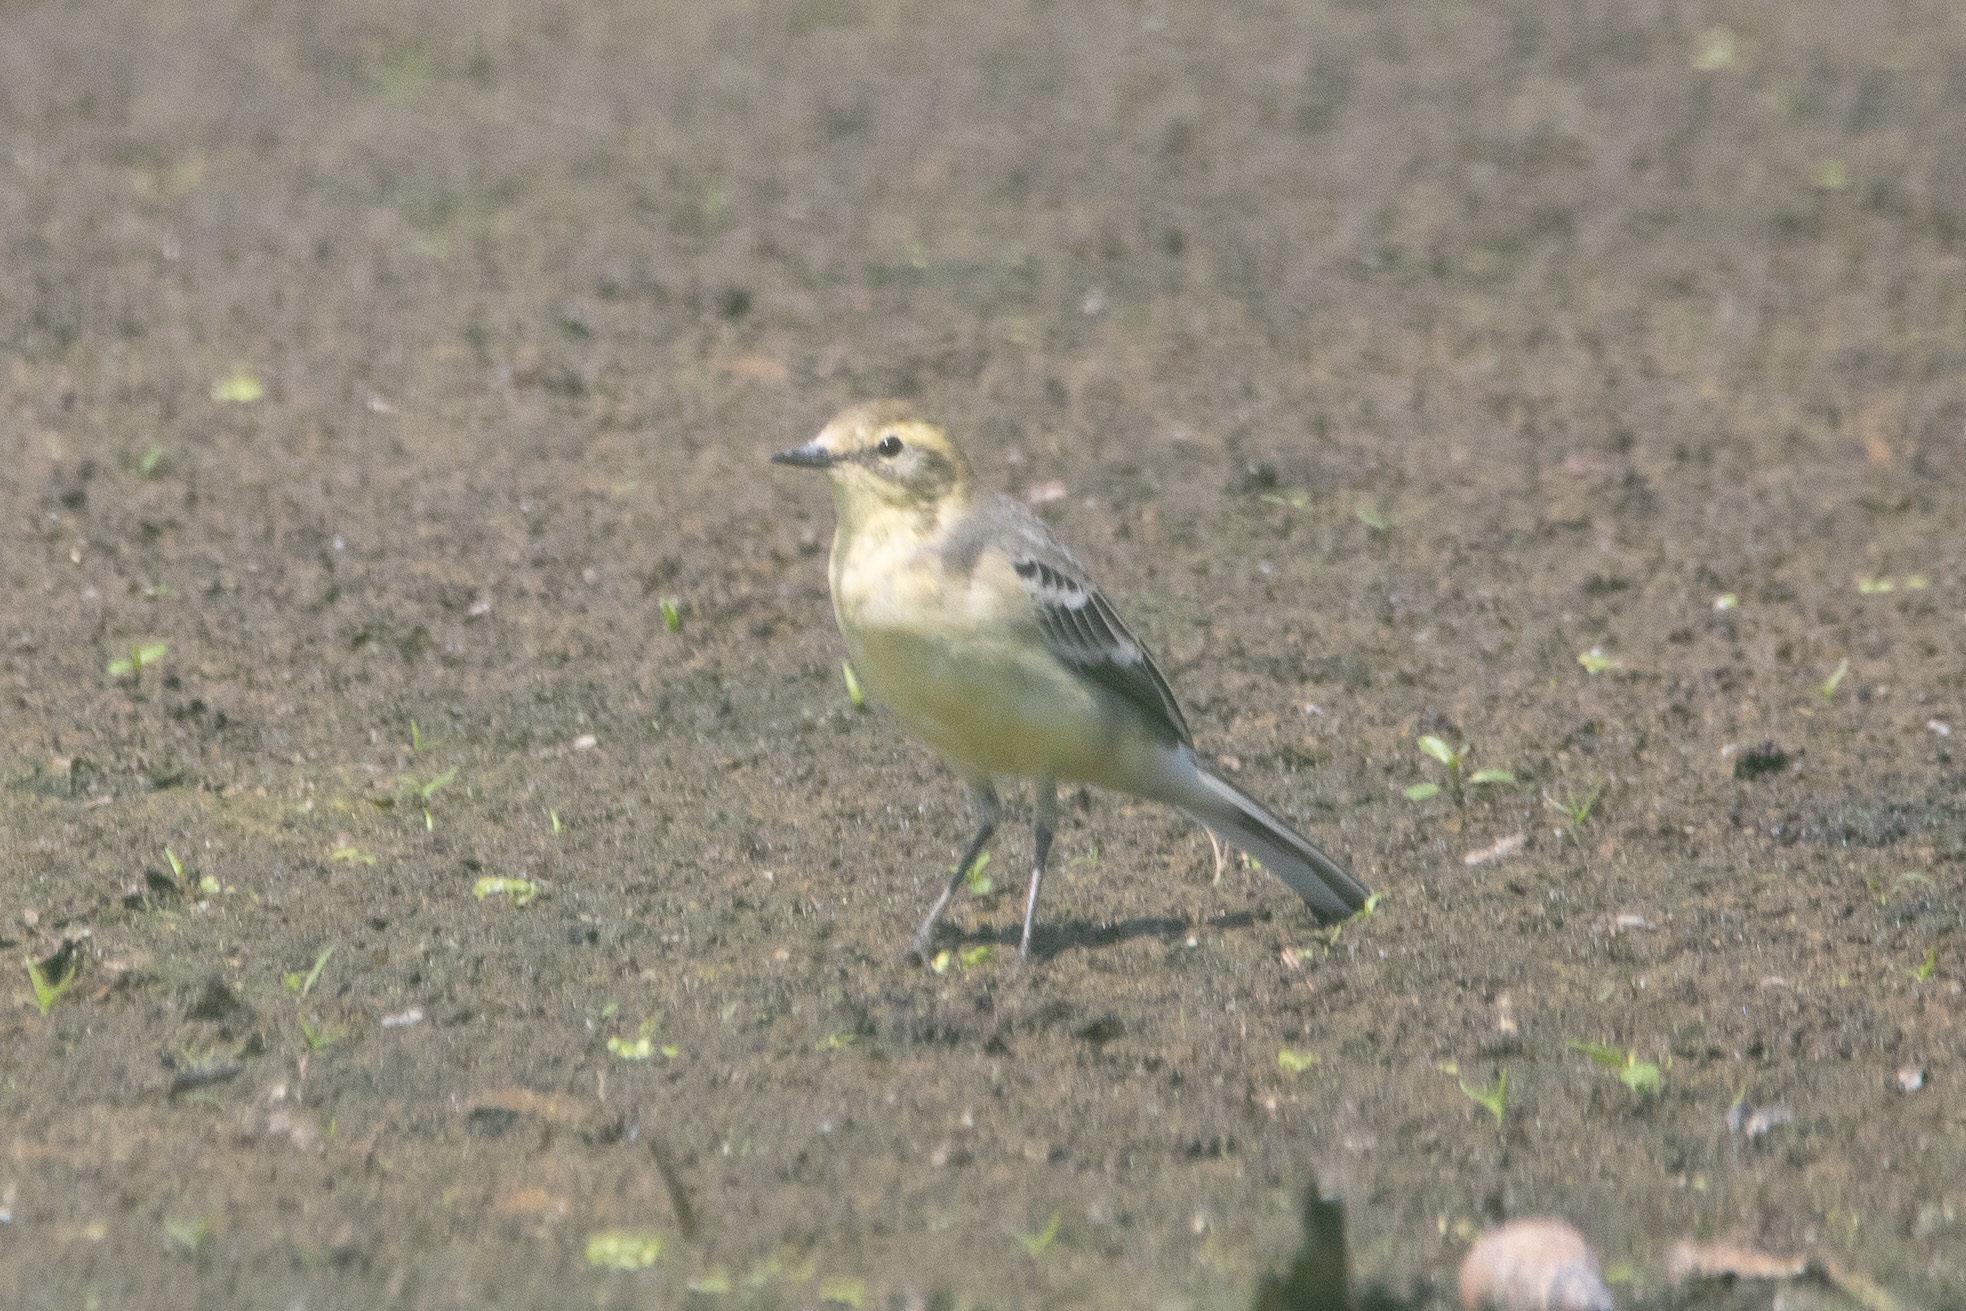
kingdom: Animalia
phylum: Chordata
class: Aves
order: Passeriformes
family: Motacillidae
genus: Motacilla
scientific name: Motacilla citreola
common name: Citrine wagtail
